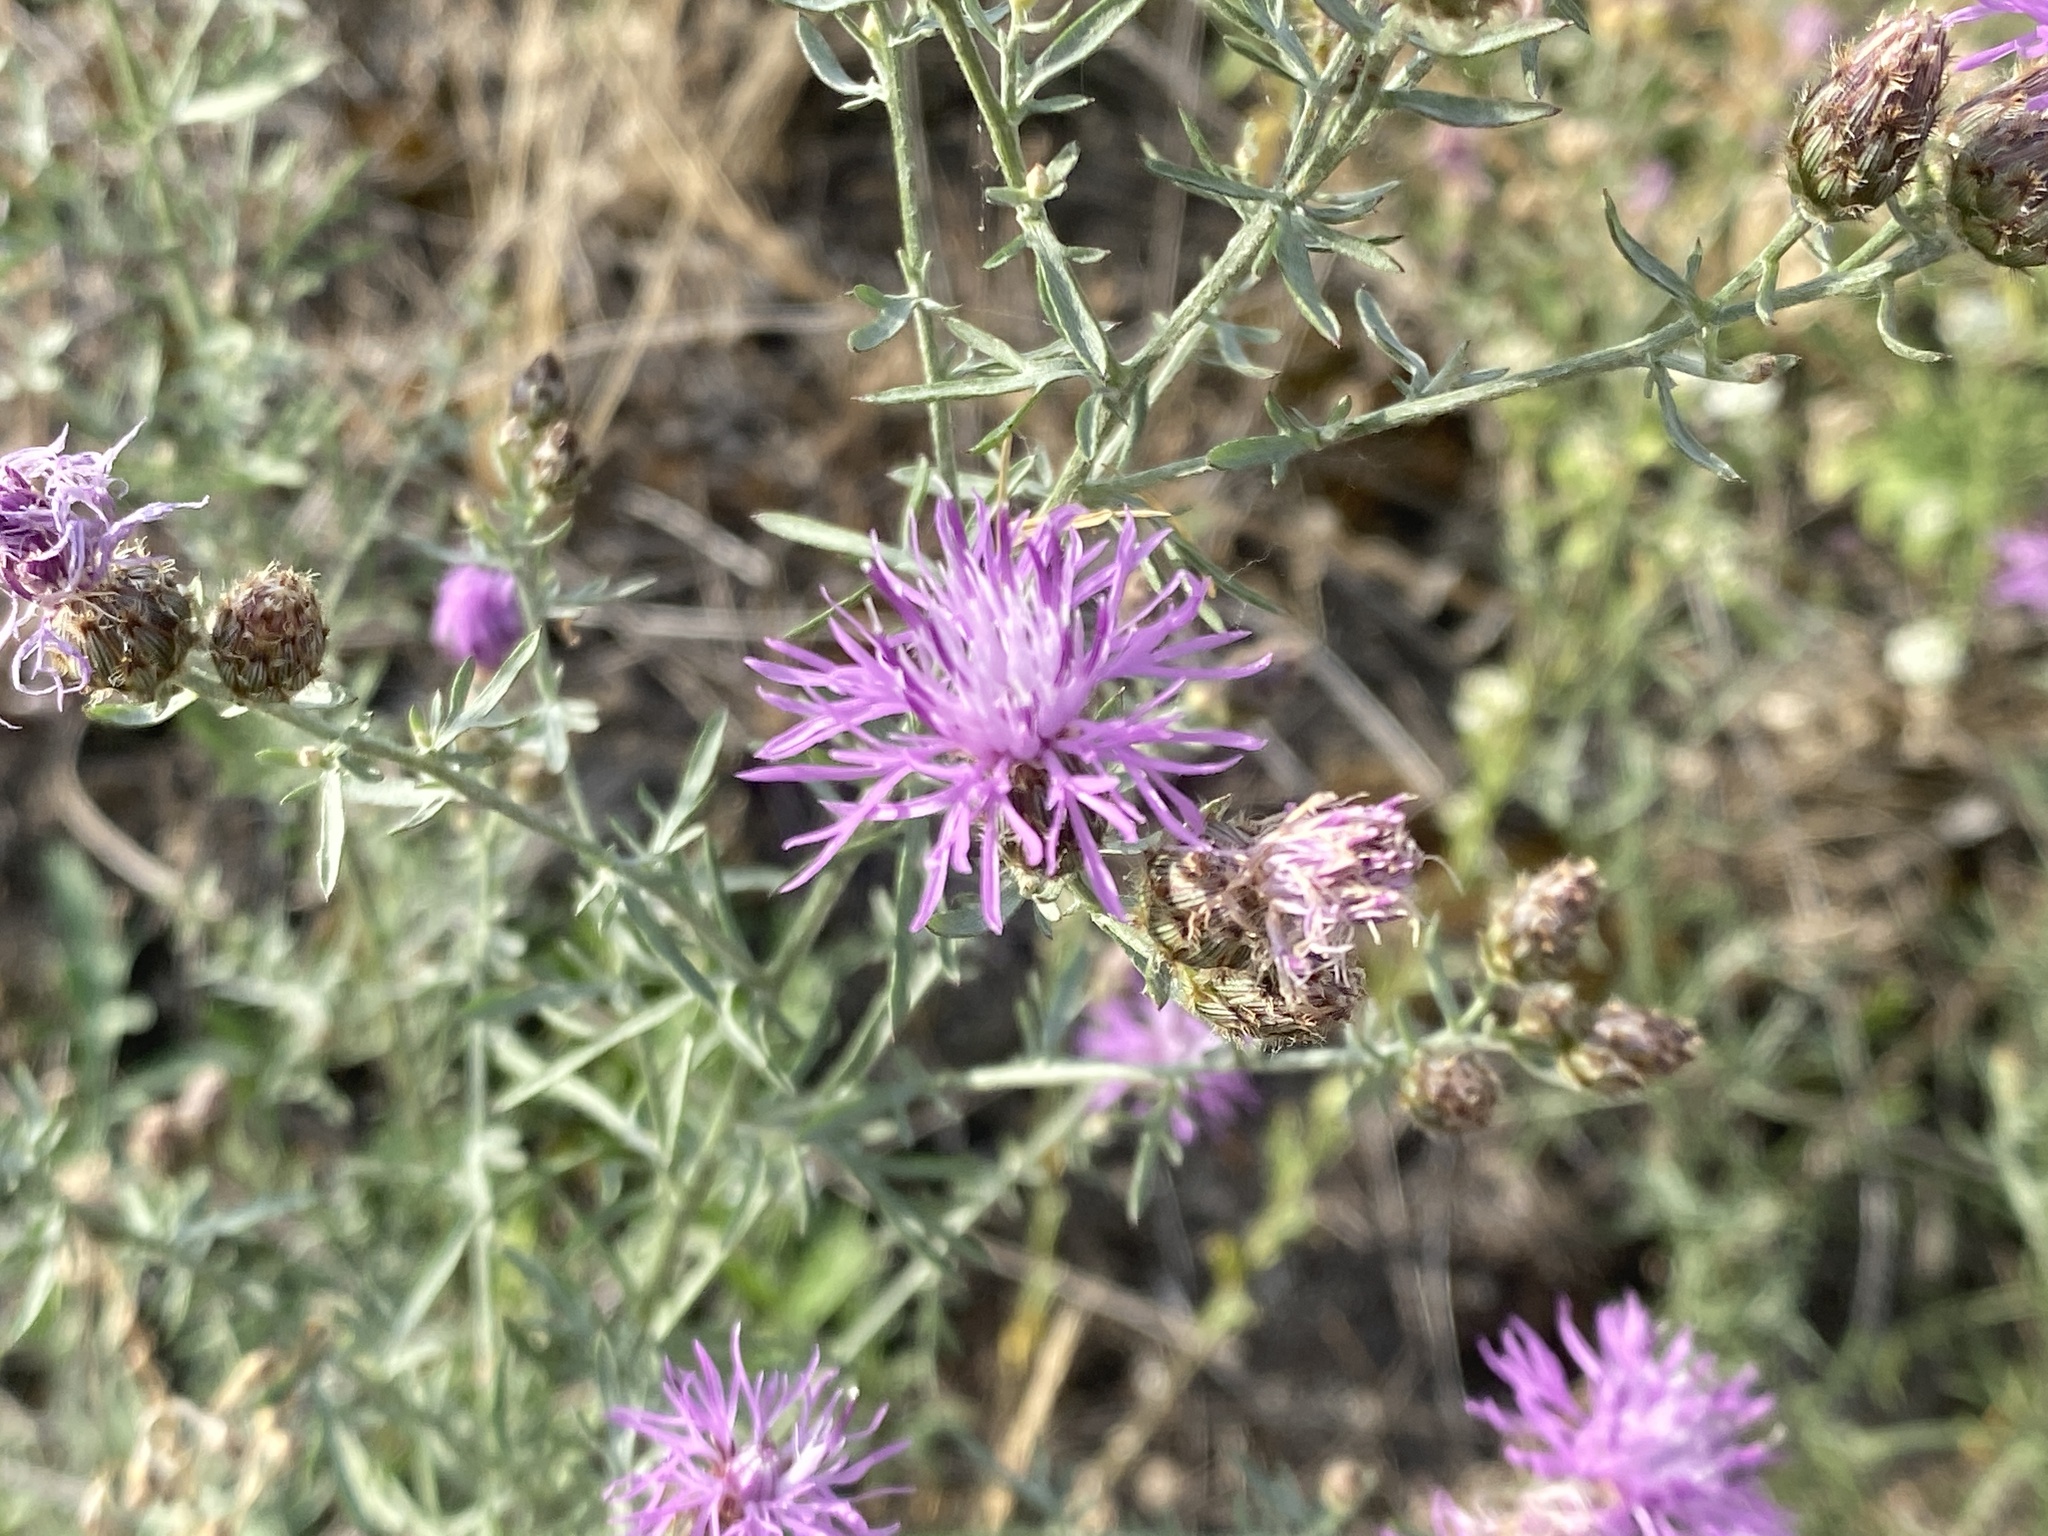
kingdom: Plantae
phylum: Tracheophyta
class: Magnoliopsida
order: Asterales
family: Asteraceae
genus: Centaurea
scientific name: Centaurea stoebe
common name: Spotted knapweed
